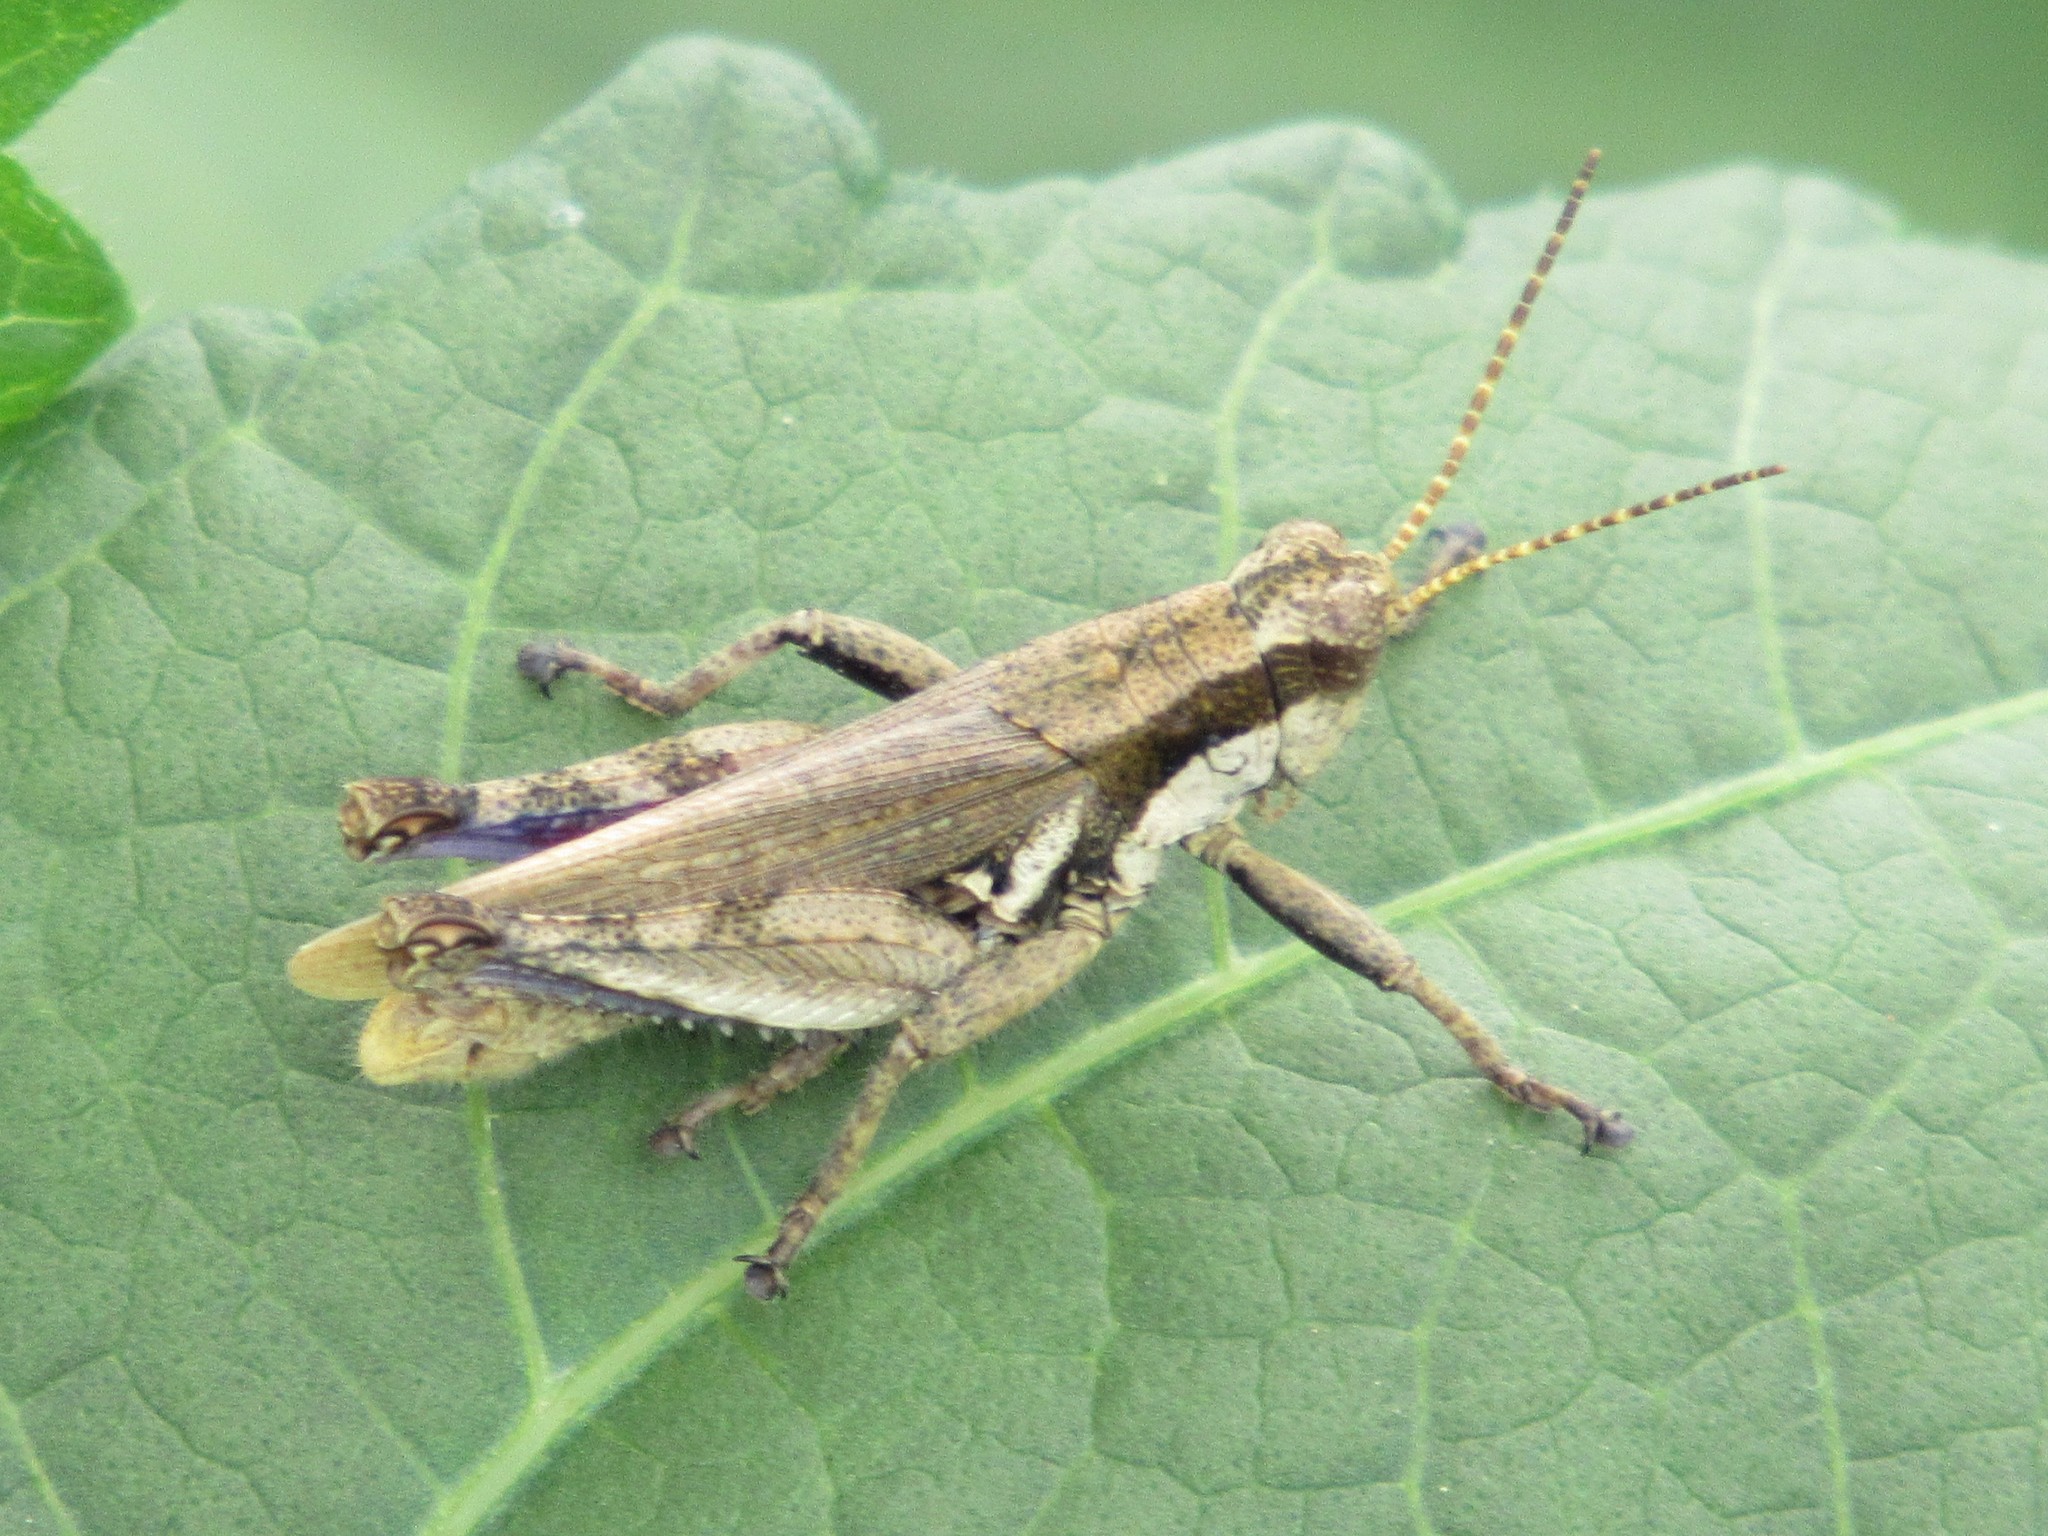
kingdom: Animalia
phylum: Arthropoda
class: Insecta
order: Orthoptera
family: Acrididae
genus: Ronderosia
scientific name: Ronderosia bergii
